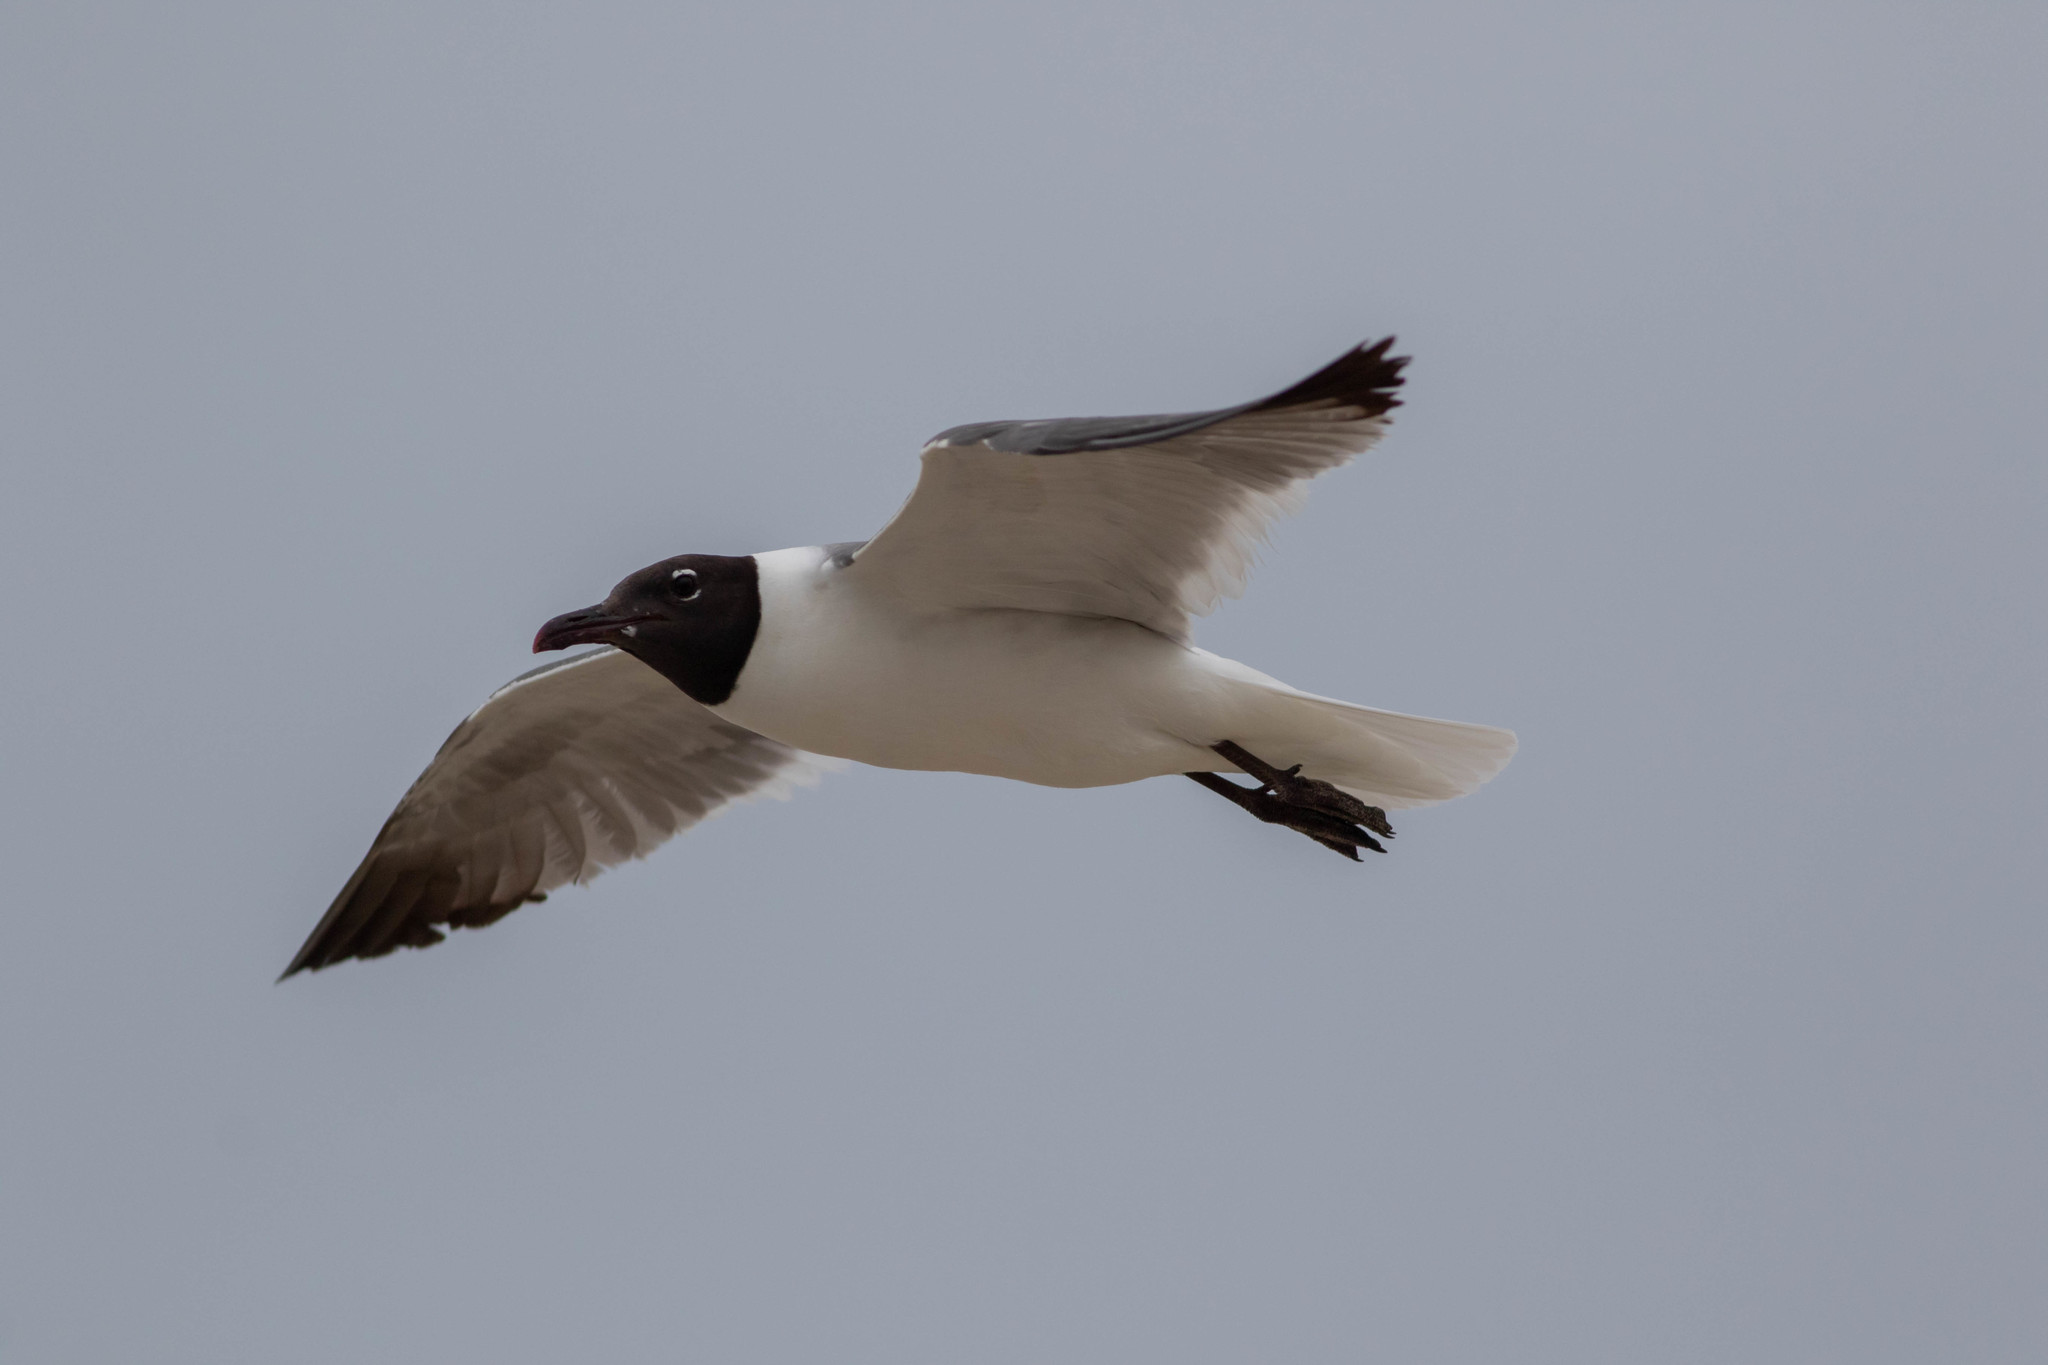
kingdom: Animalia
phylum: Chordata
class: Aves
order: Charadriiformes
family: Laridae
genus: Leucophaeus
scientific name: Leucophaeus atricilla
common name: Laughing gull
